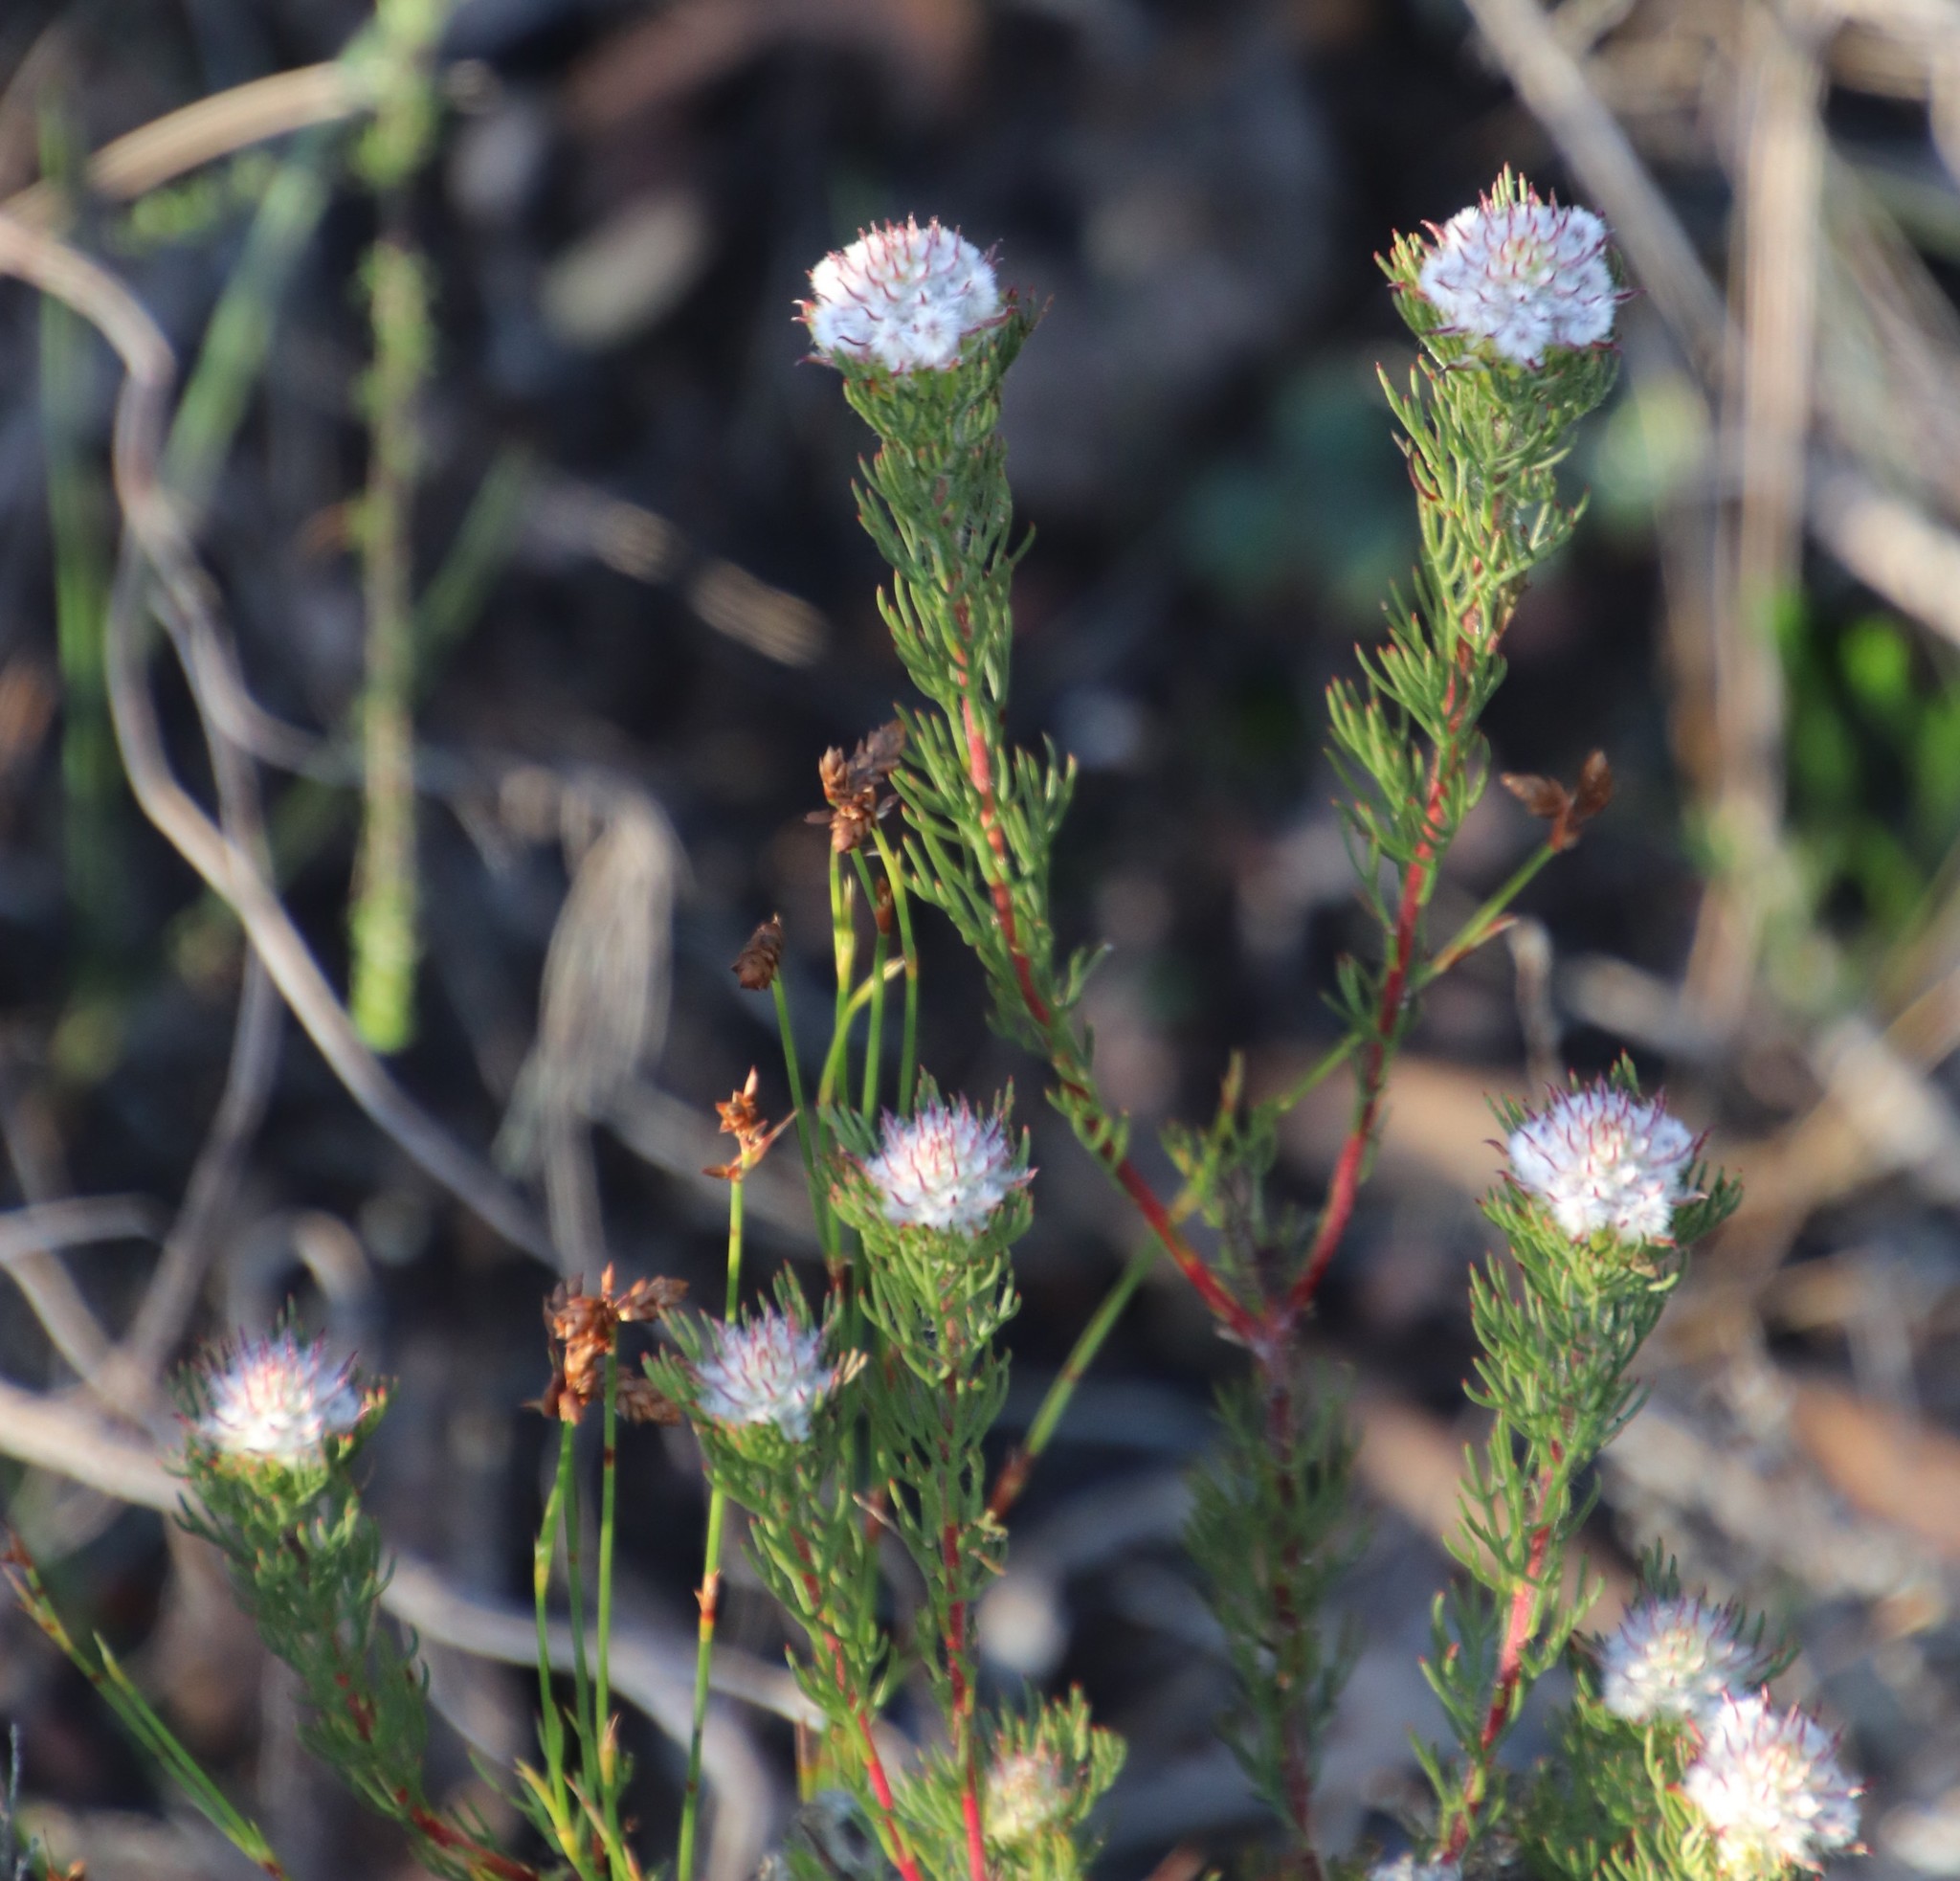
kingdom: Plantae
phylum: Tracheophyta
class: Magnoliopsida
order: Proteales
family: Proteaceae
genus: Serruria
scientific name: Serruria nervosa
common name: Fluted spiderhead
